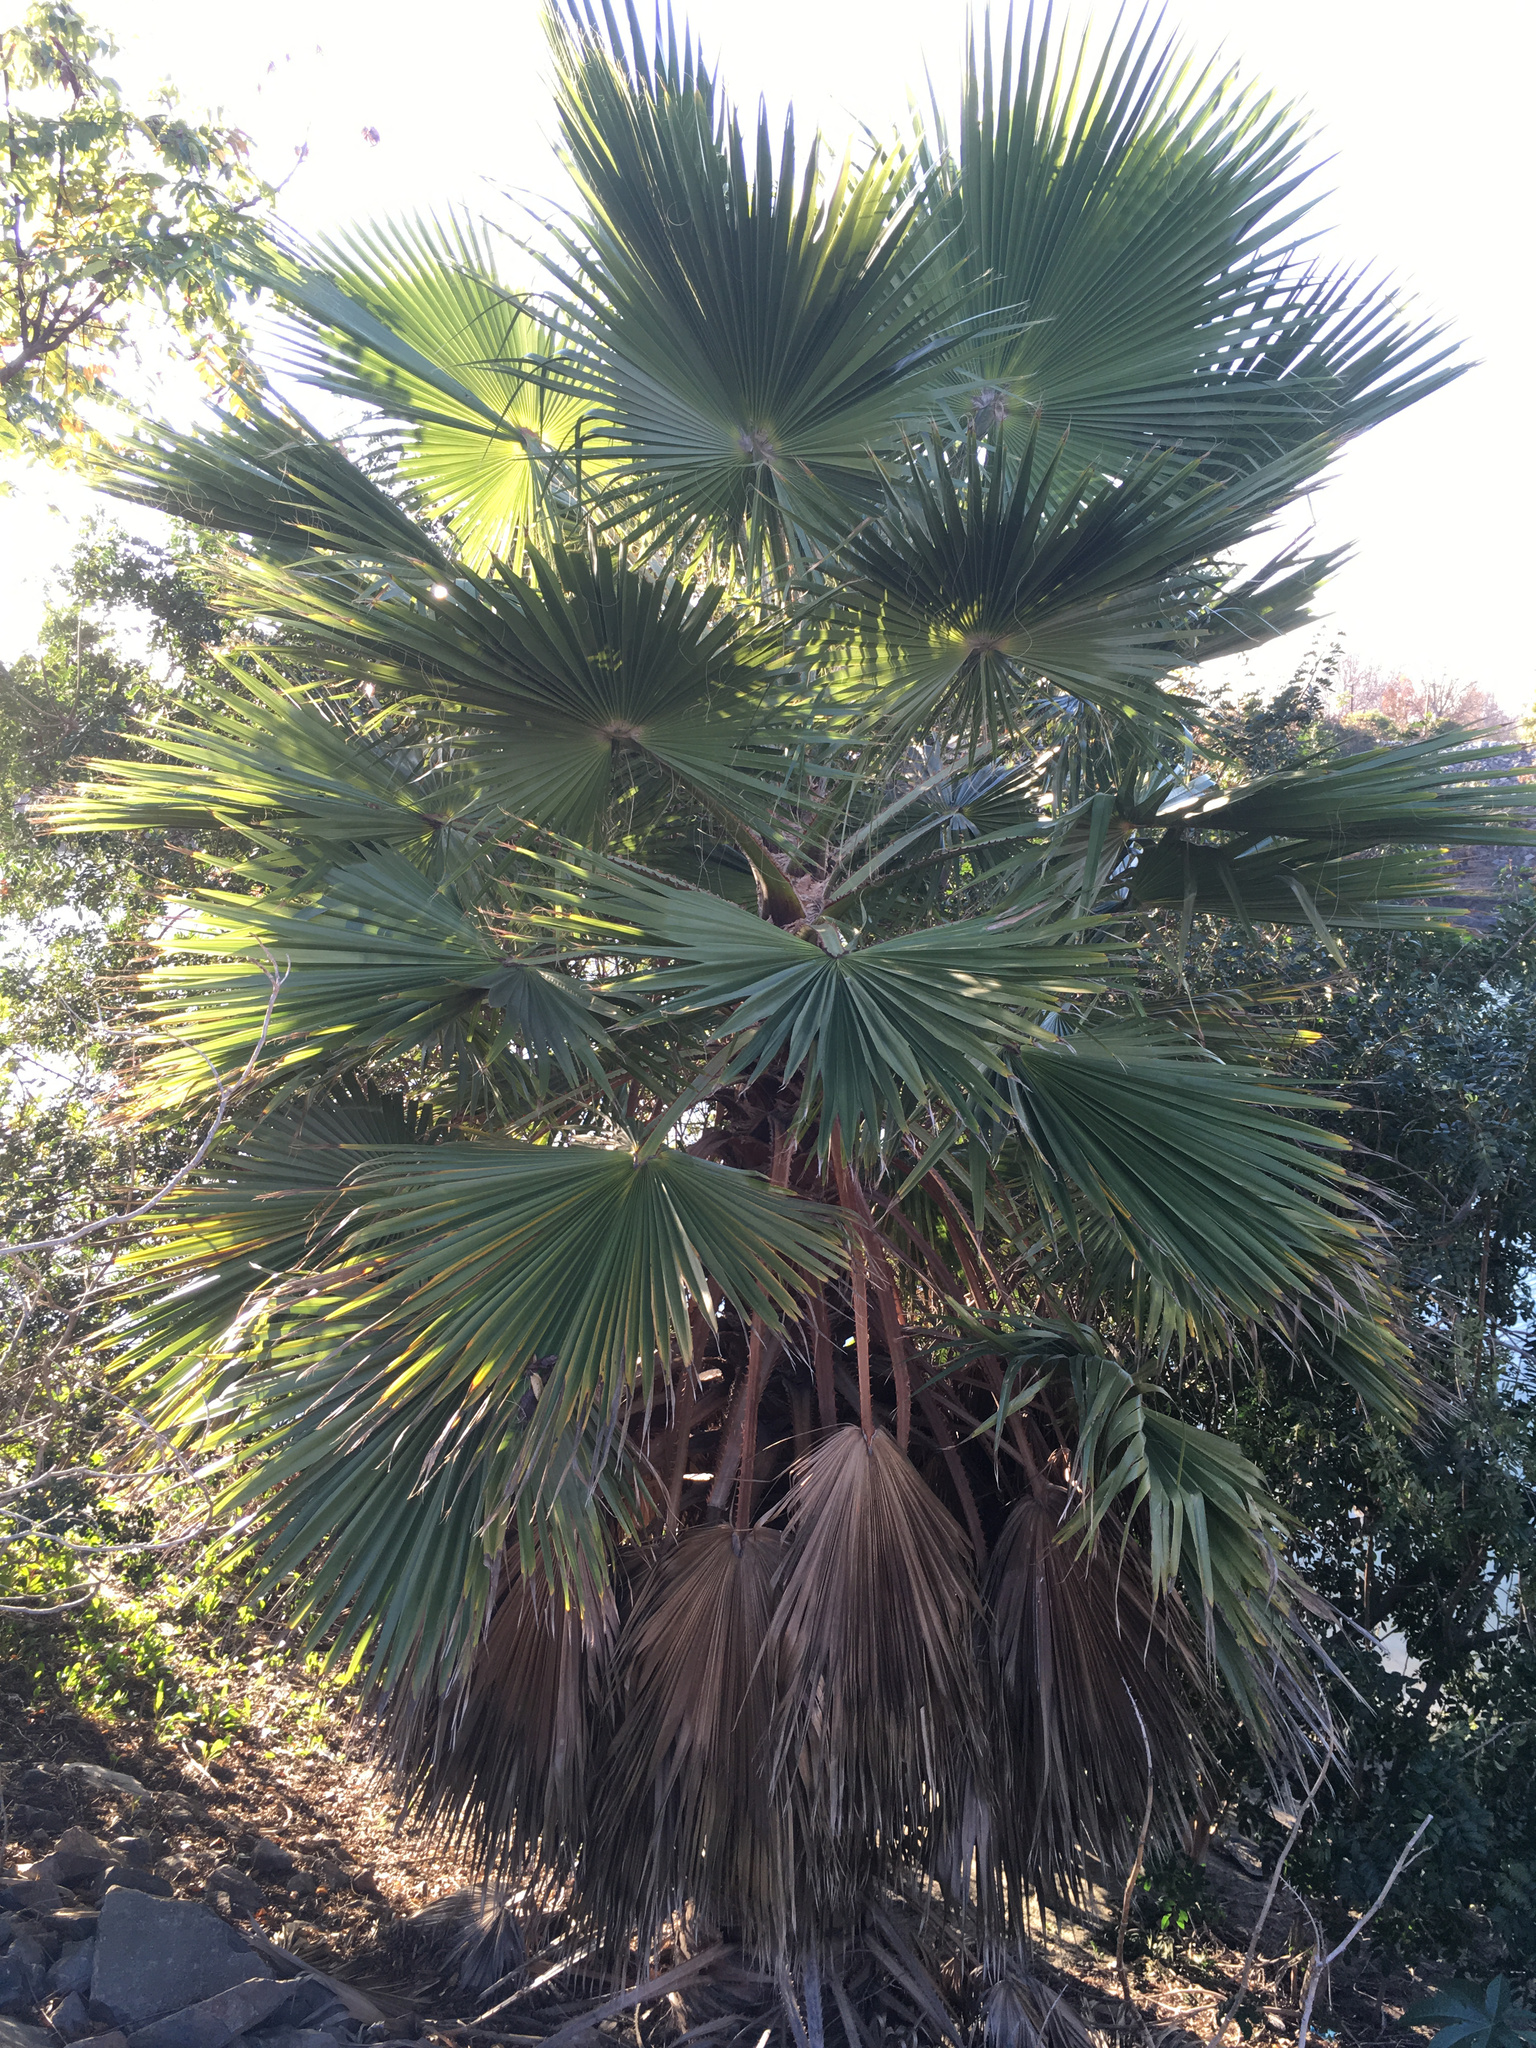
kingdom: Plantae
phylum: Tracheophyta
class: Liliopsida
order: Arecales
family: Arecaceae
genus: Washingtonia
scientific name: Washingtonia robusta
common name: Mexican fan palm
